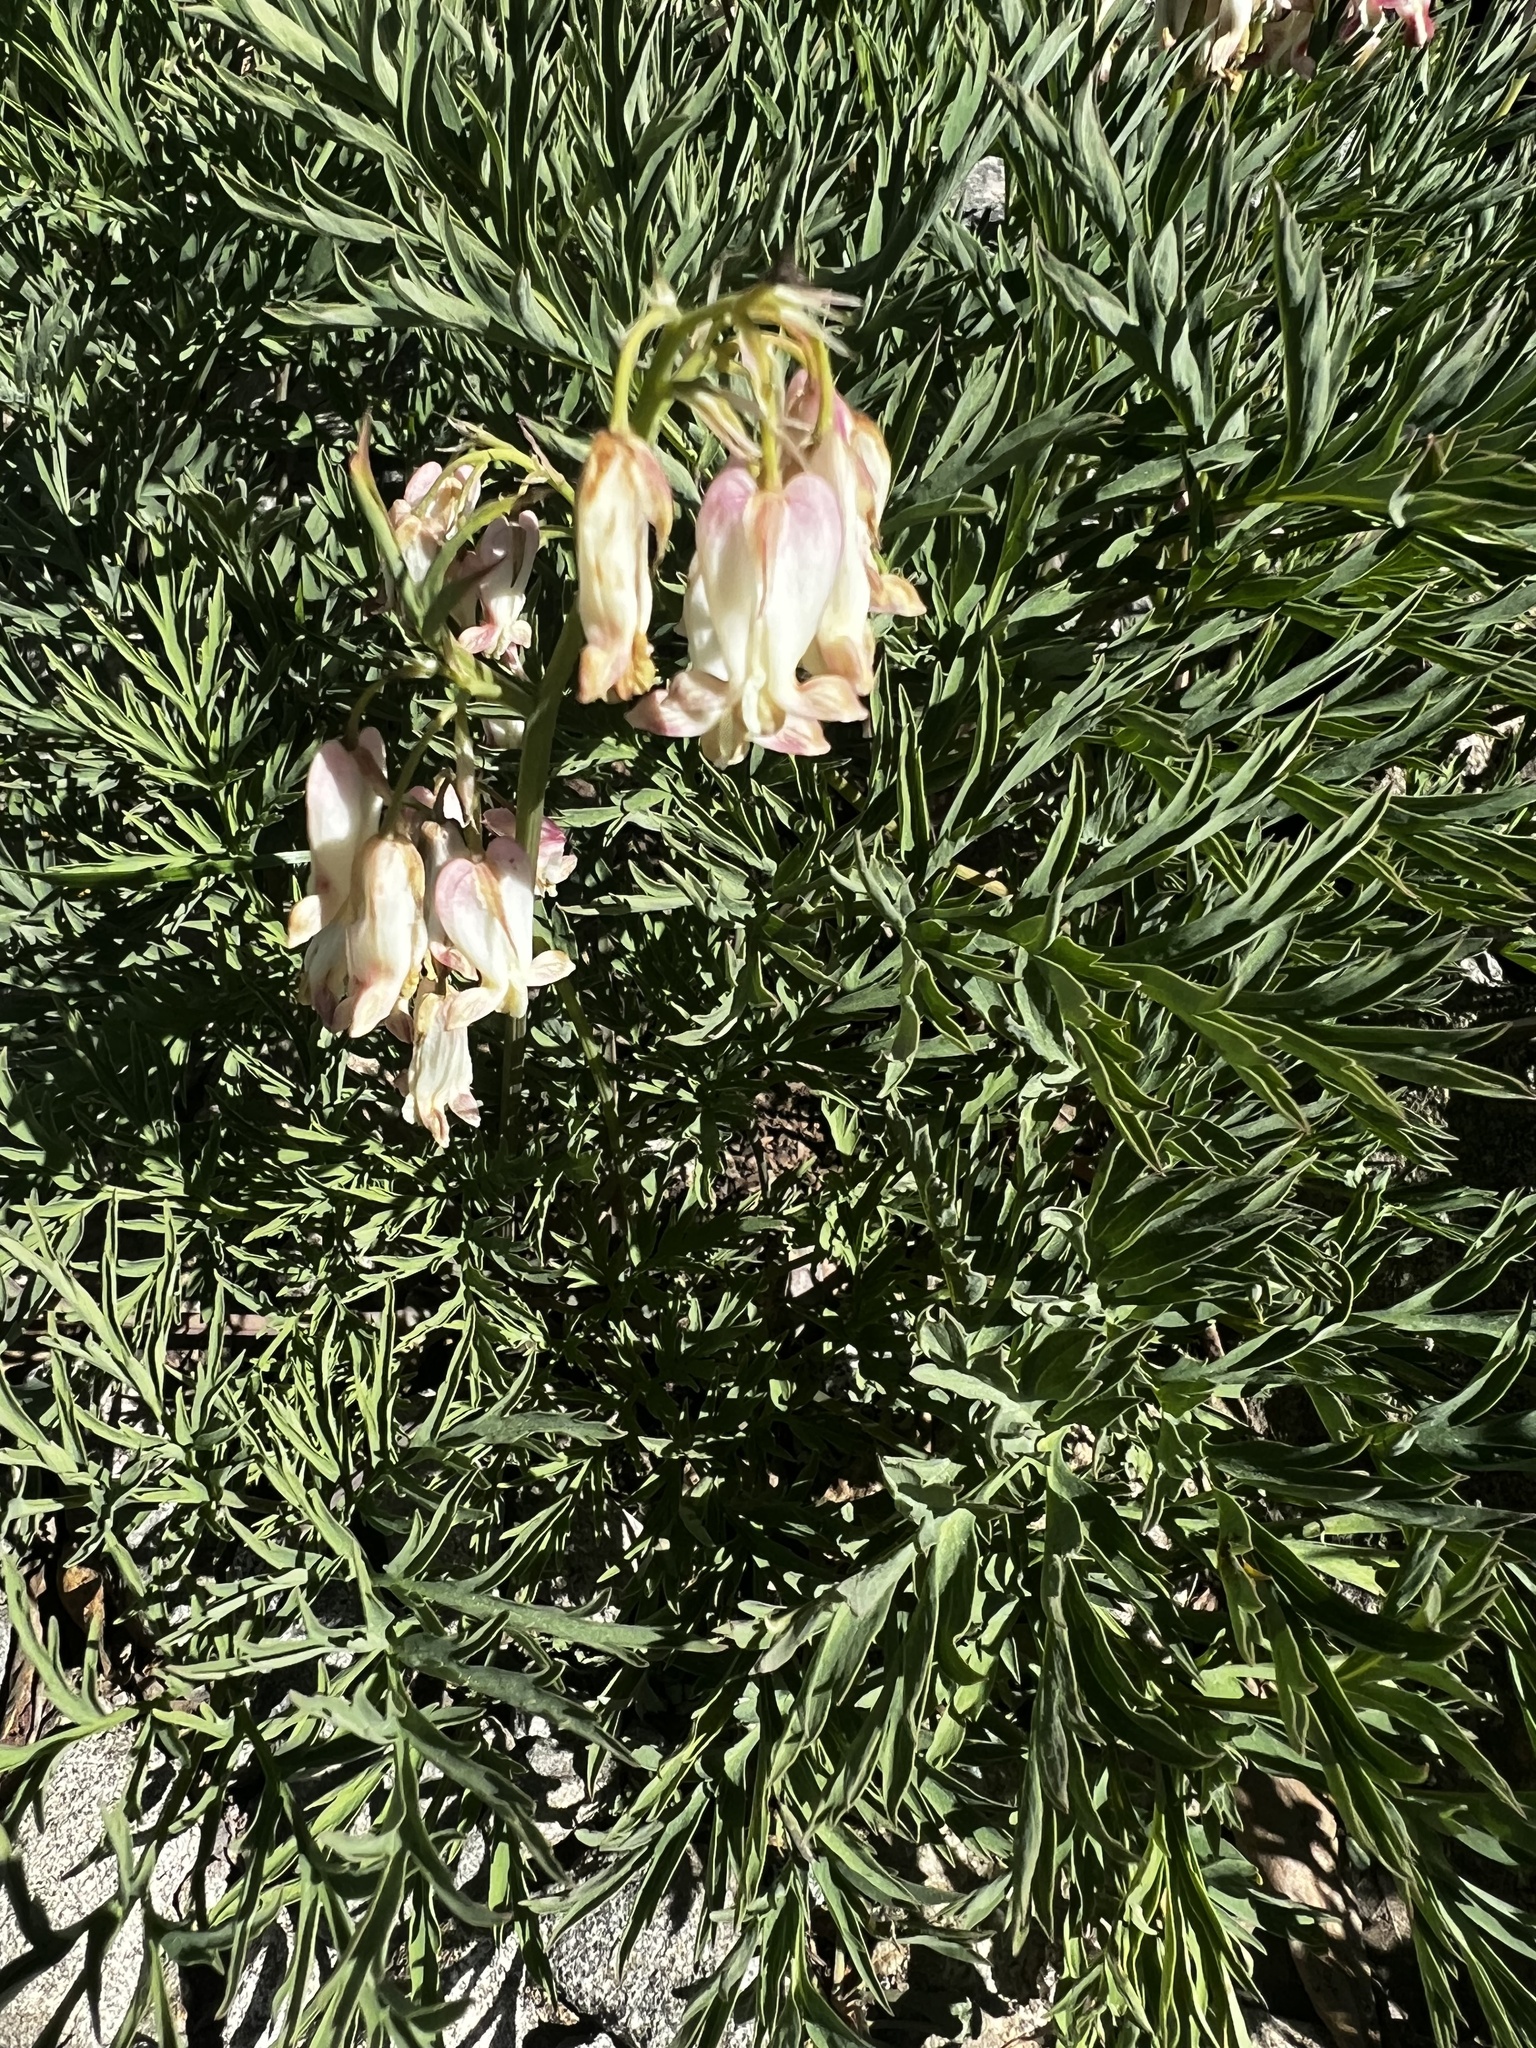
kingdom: Plantae
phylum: Tracheophyta
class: Magnoliopsida
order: Ranunculales
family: Papaveraceae
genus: Dicentra
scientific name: Dicentra nevadensis
